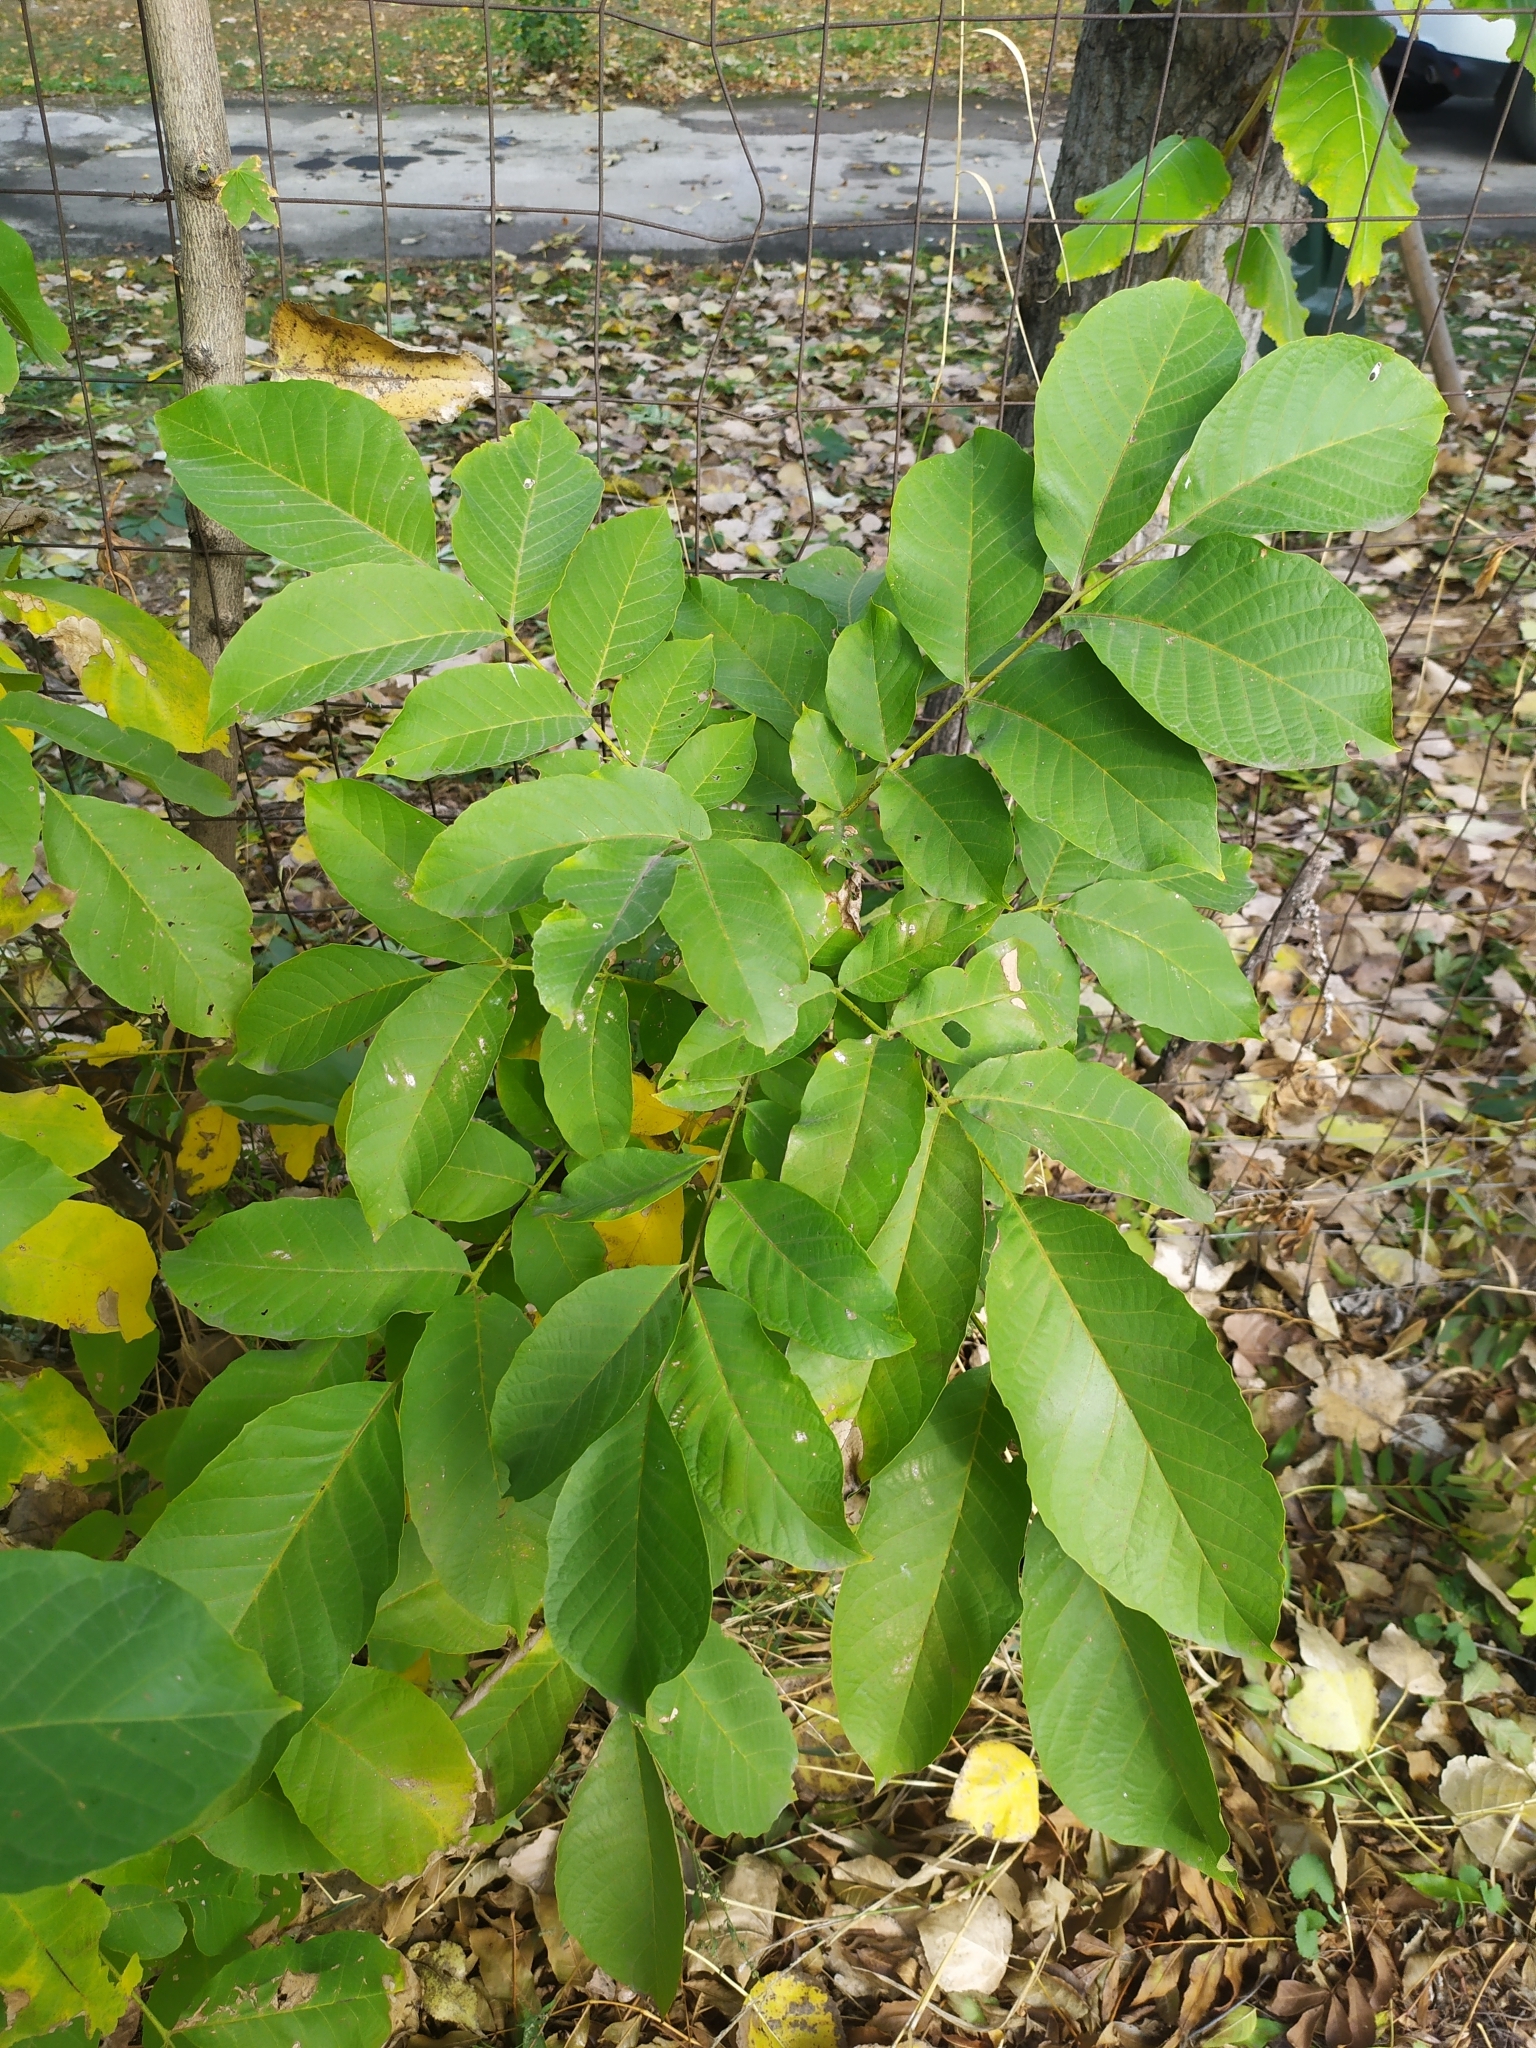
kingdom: Plantae
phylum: Tracheophyta
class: Magnoliopsida
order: Fagales
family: Juglandaceae
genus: Juglans
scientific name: Juglans regia
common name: Walnut
